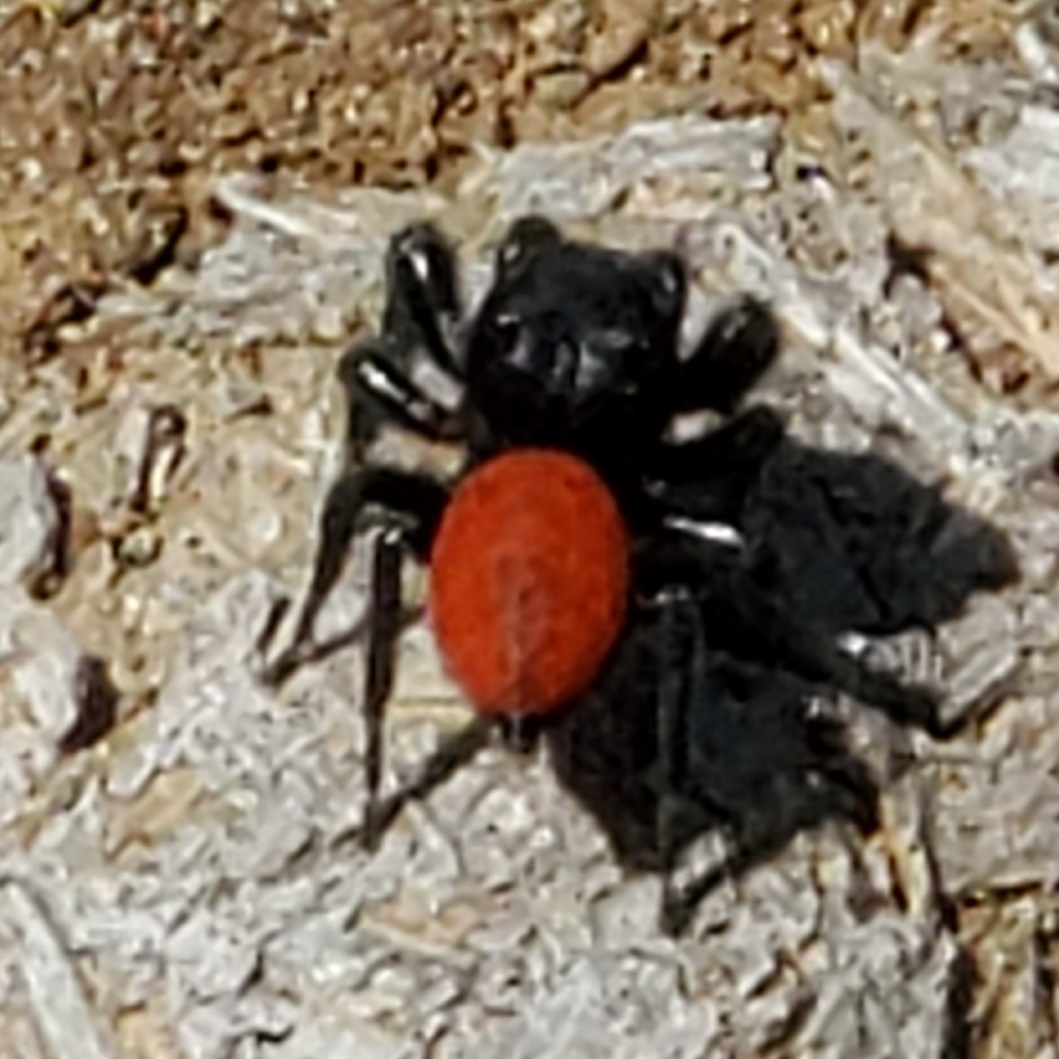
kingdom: Animalia
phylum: Arthropoda
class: Arachnida
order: Araneae
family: Salticidae
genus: Phidippus
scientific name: Phidippus johnsoni
